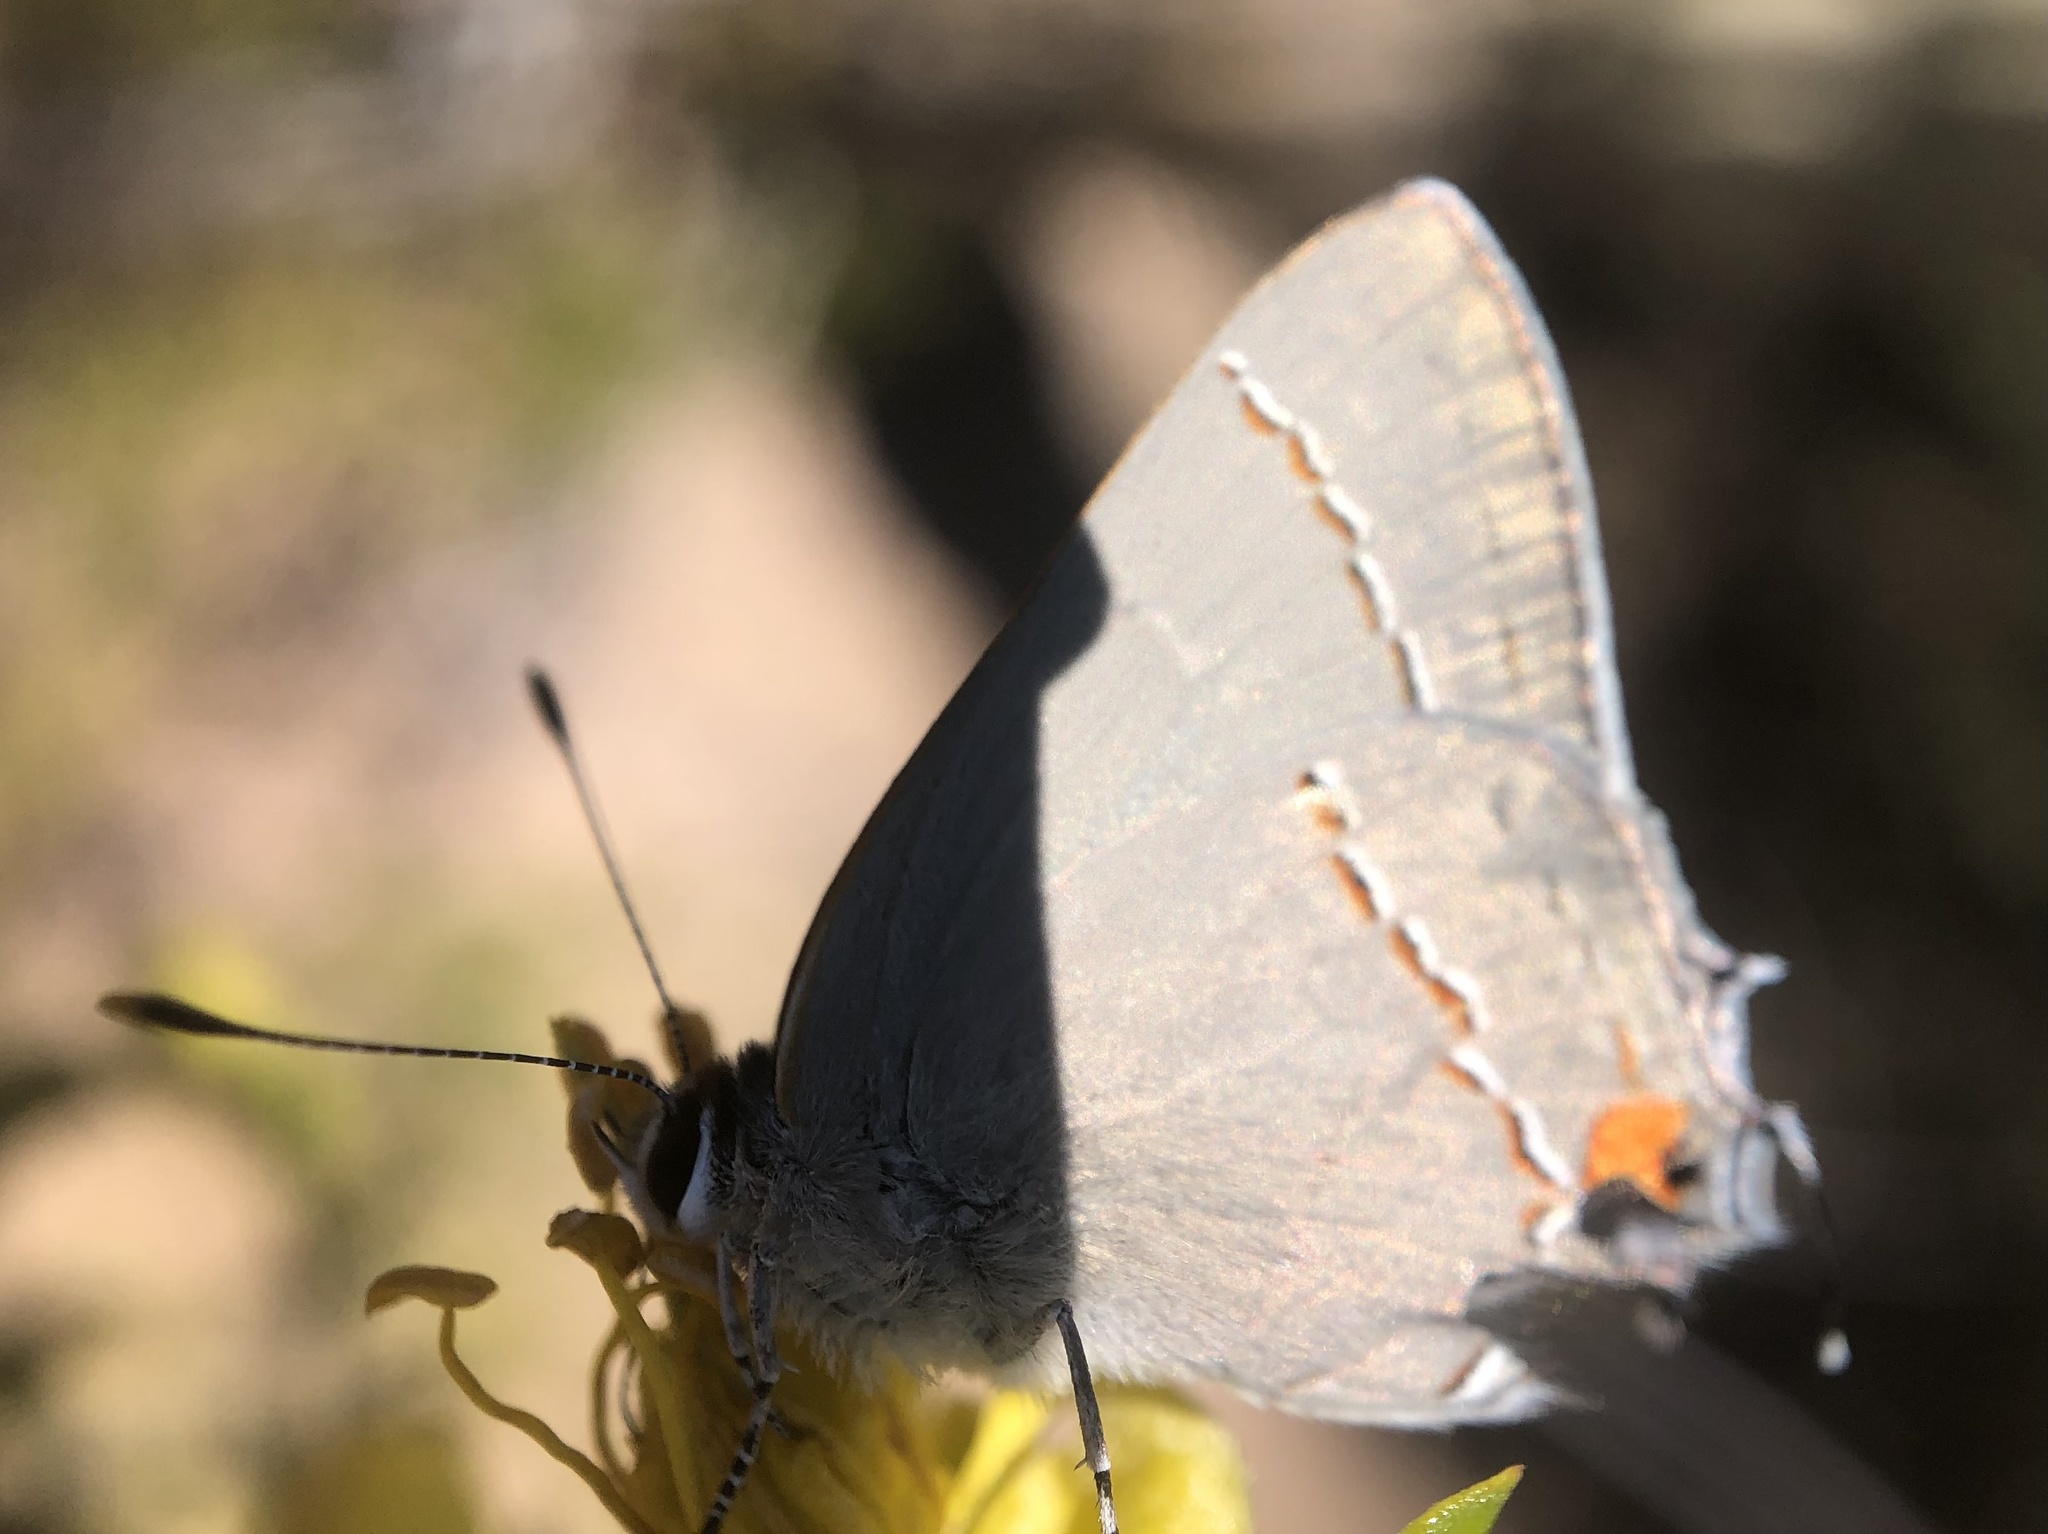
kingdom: Animalia
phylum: Arthropoda
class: Insecta
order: Lepidoptera
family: Lycaenidae
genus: Strymon
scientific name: Strymon melinus
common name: Gray hairstreak
